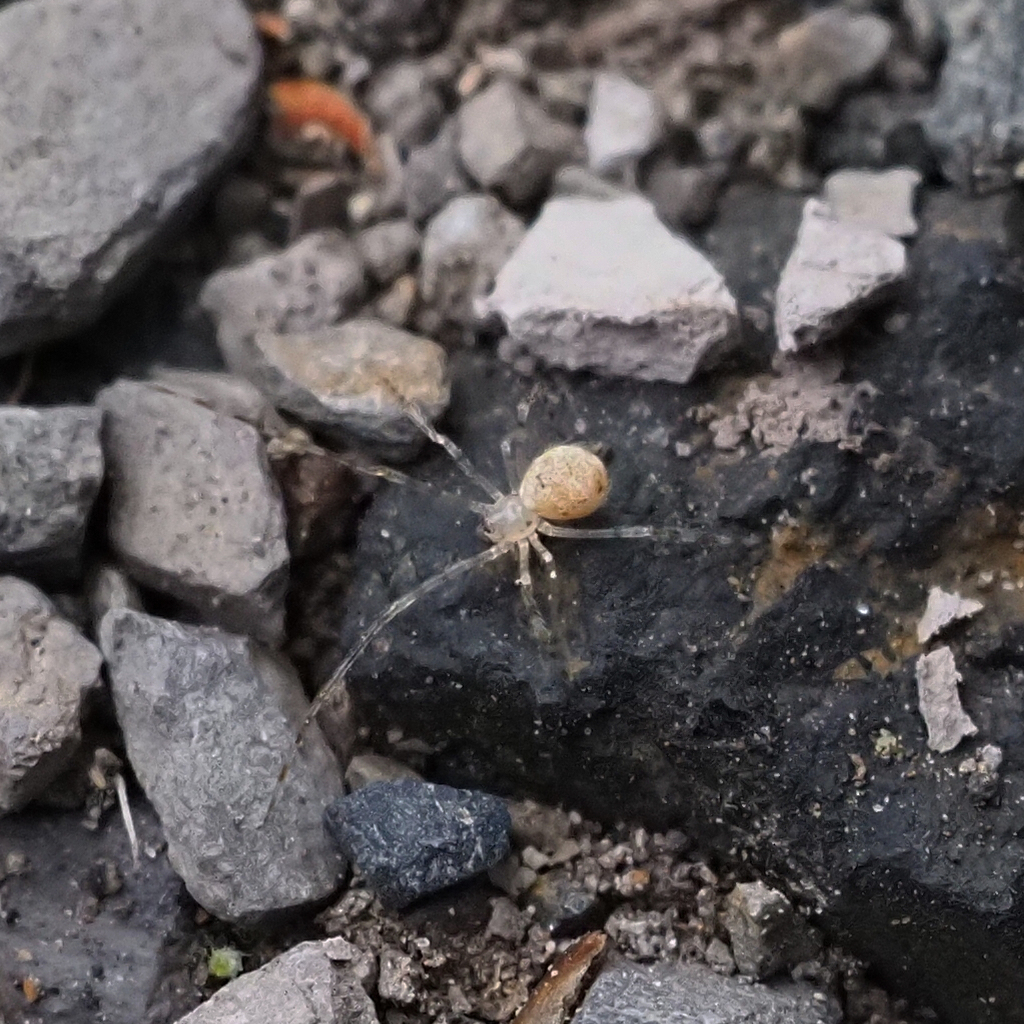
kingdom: Animalia
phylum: Arthropoda
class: Arachnida
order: Araneae
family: Theridiidae
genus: Cryptachaea
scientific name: Cryptachaea gigantipes
